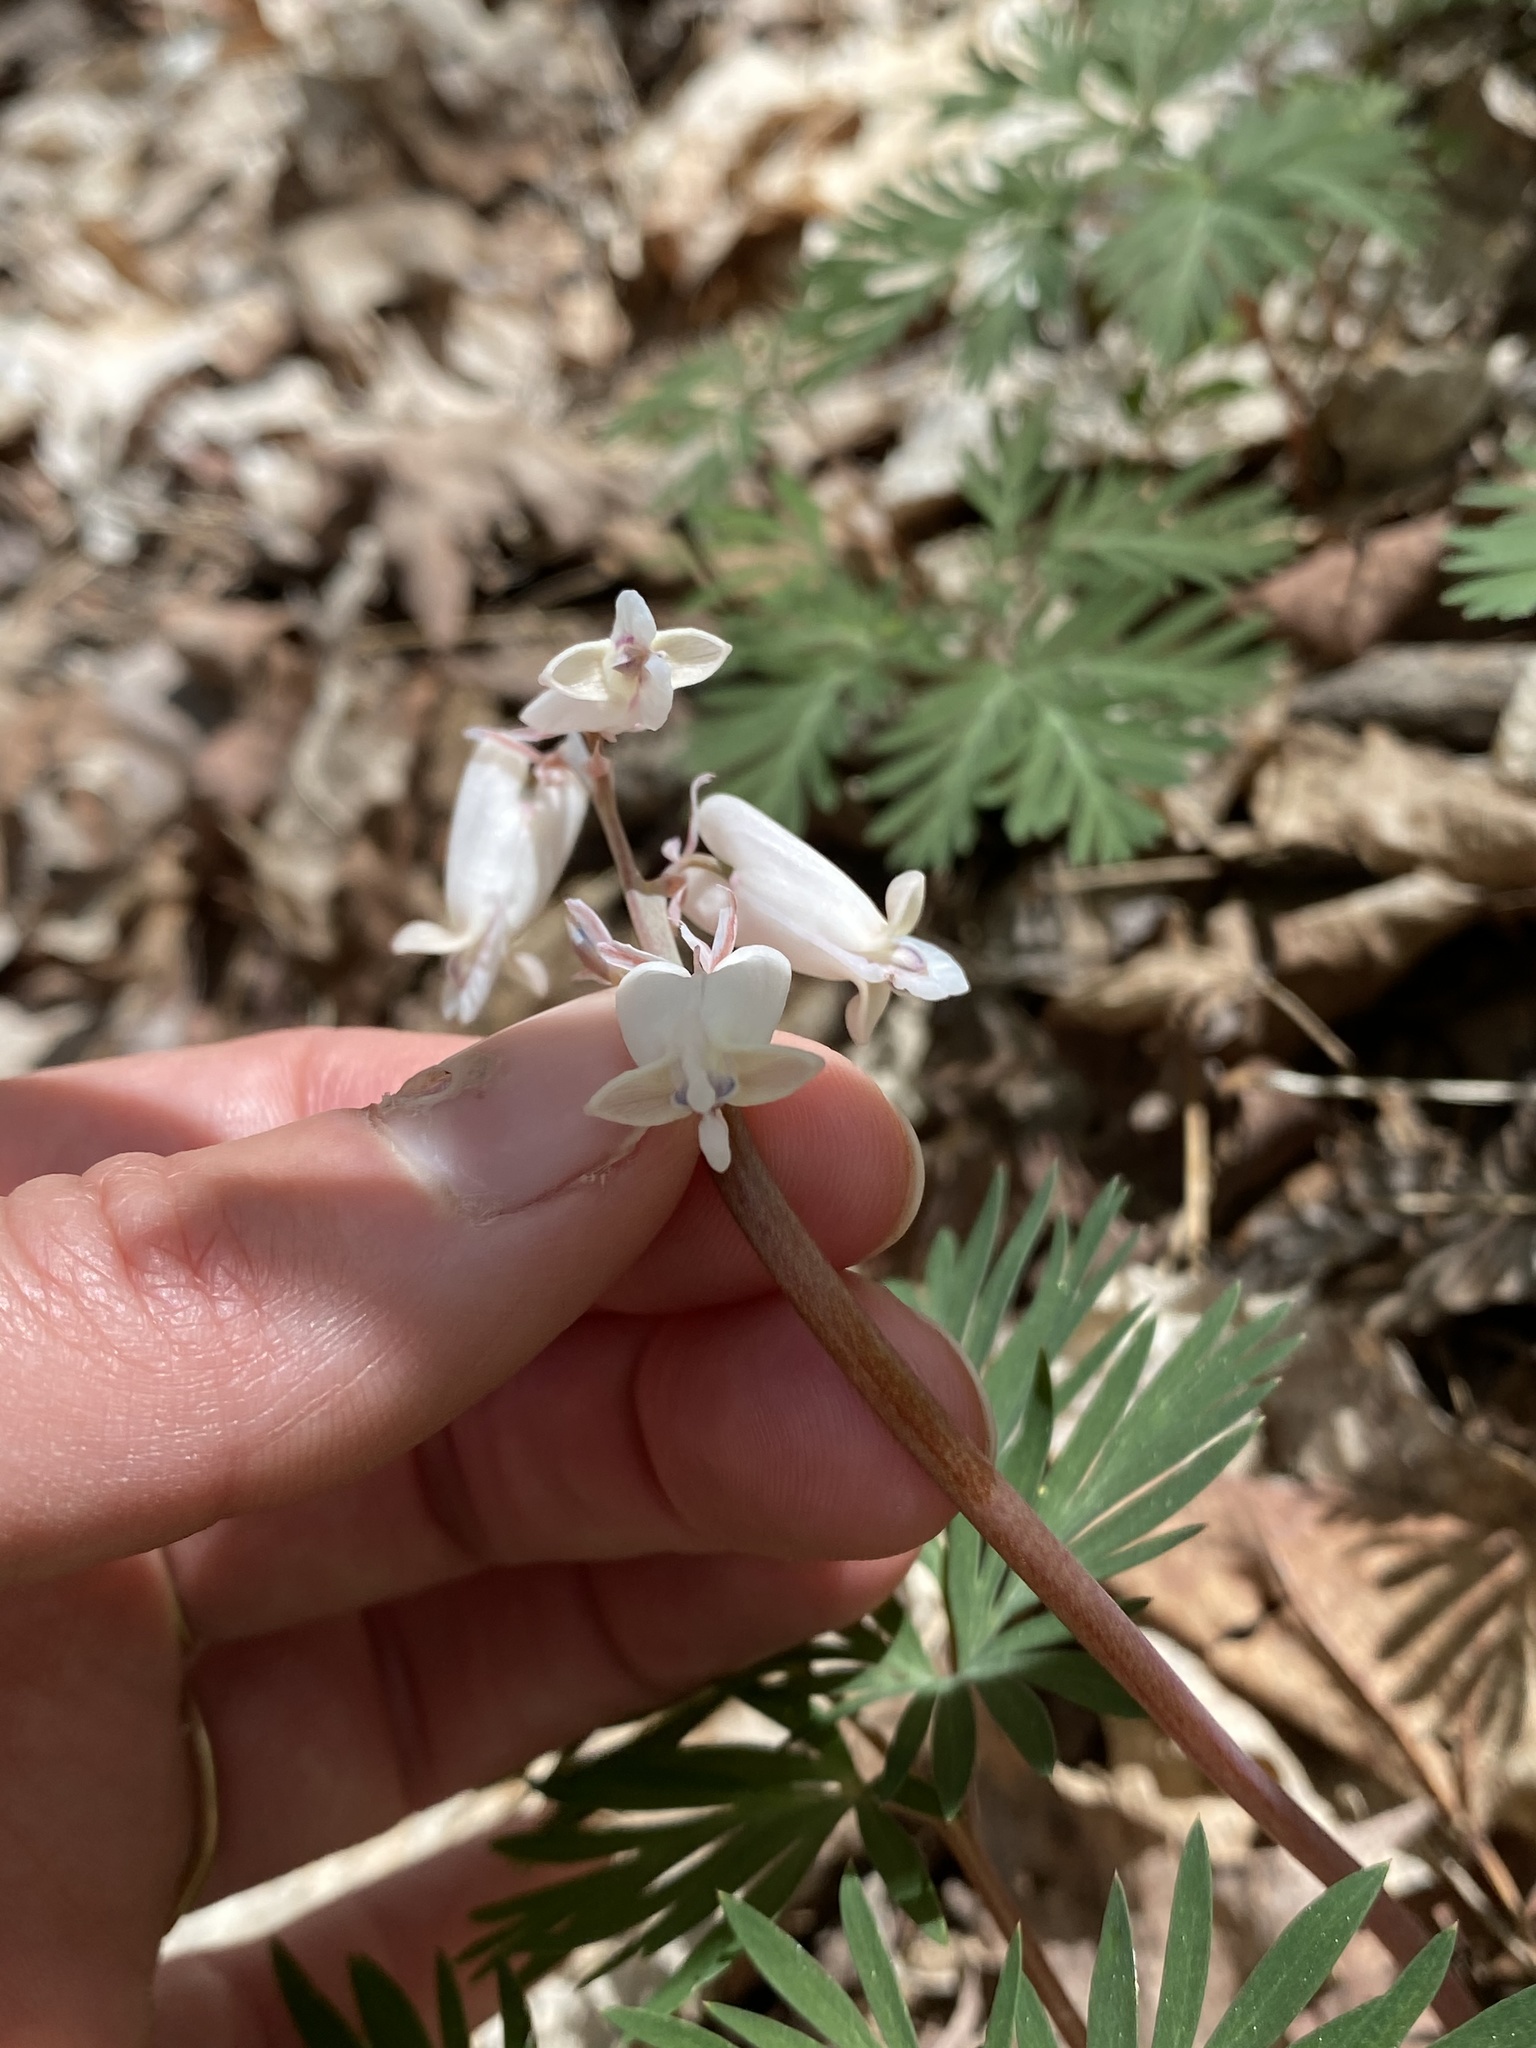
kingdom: Plantae
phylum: Tracheophyta
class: Magnoliopsida
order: Ranunculales
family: Papaveraceae
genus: Dicentra
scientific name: Dicentra canadensis
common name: Squirrel-corn
